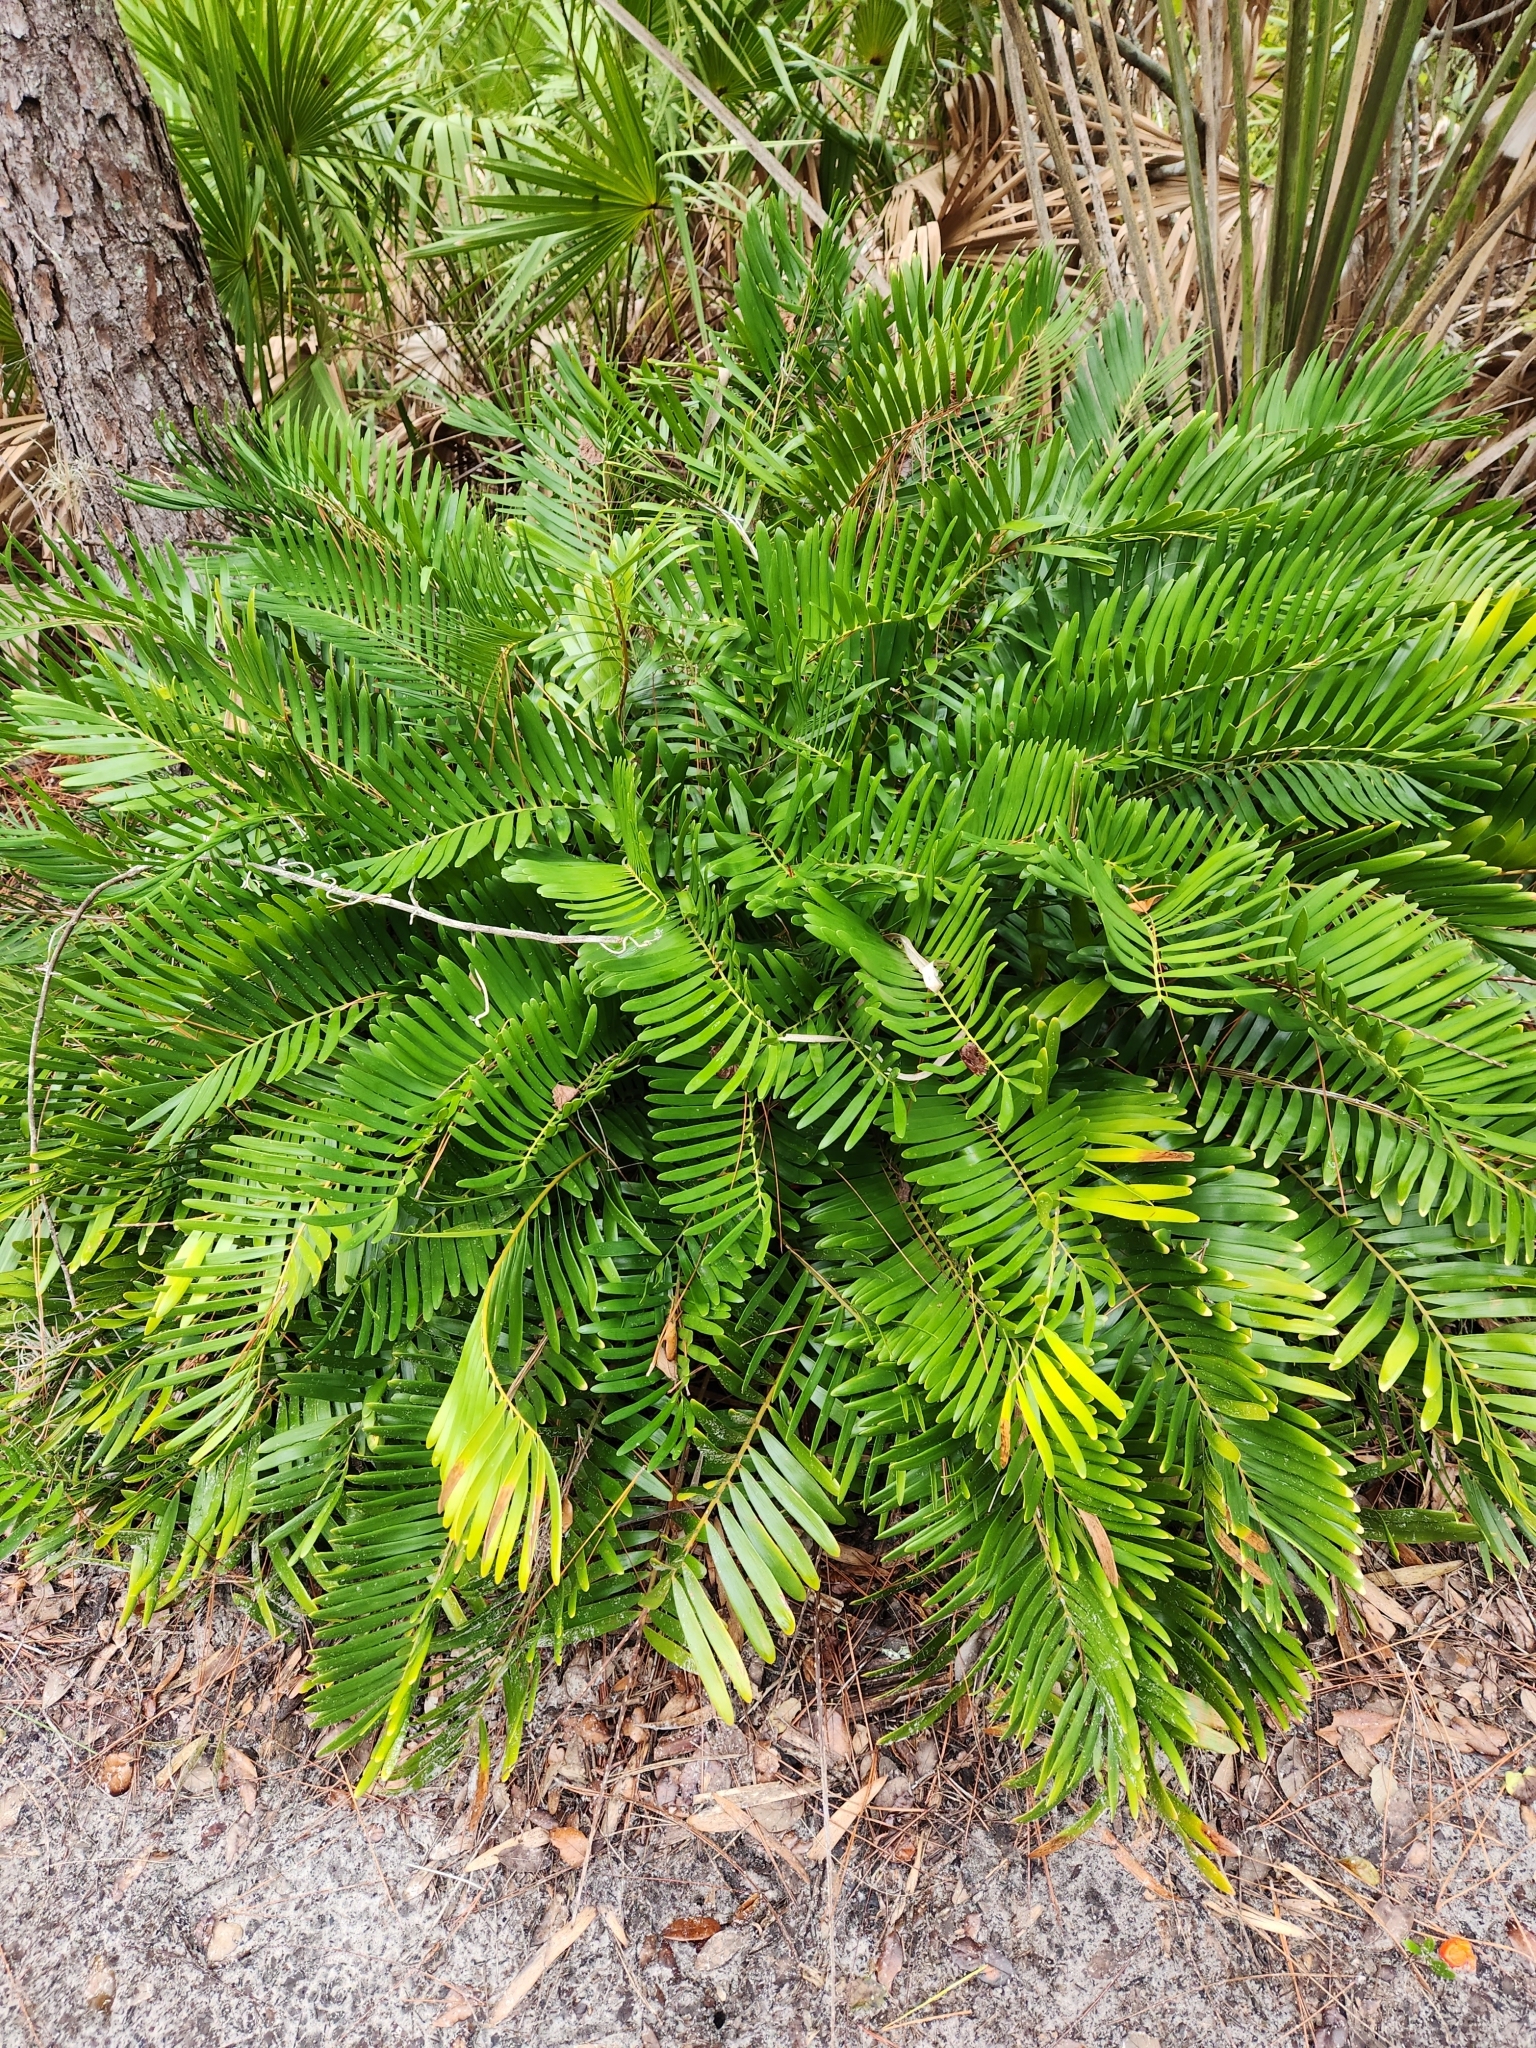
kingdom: Plantae
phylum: Tracheophyta
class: Cycadopsida
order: Cycadales
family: Zamiaceae
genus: Zamia
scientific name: Zamia integrifolia
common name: Florida arrowroot
